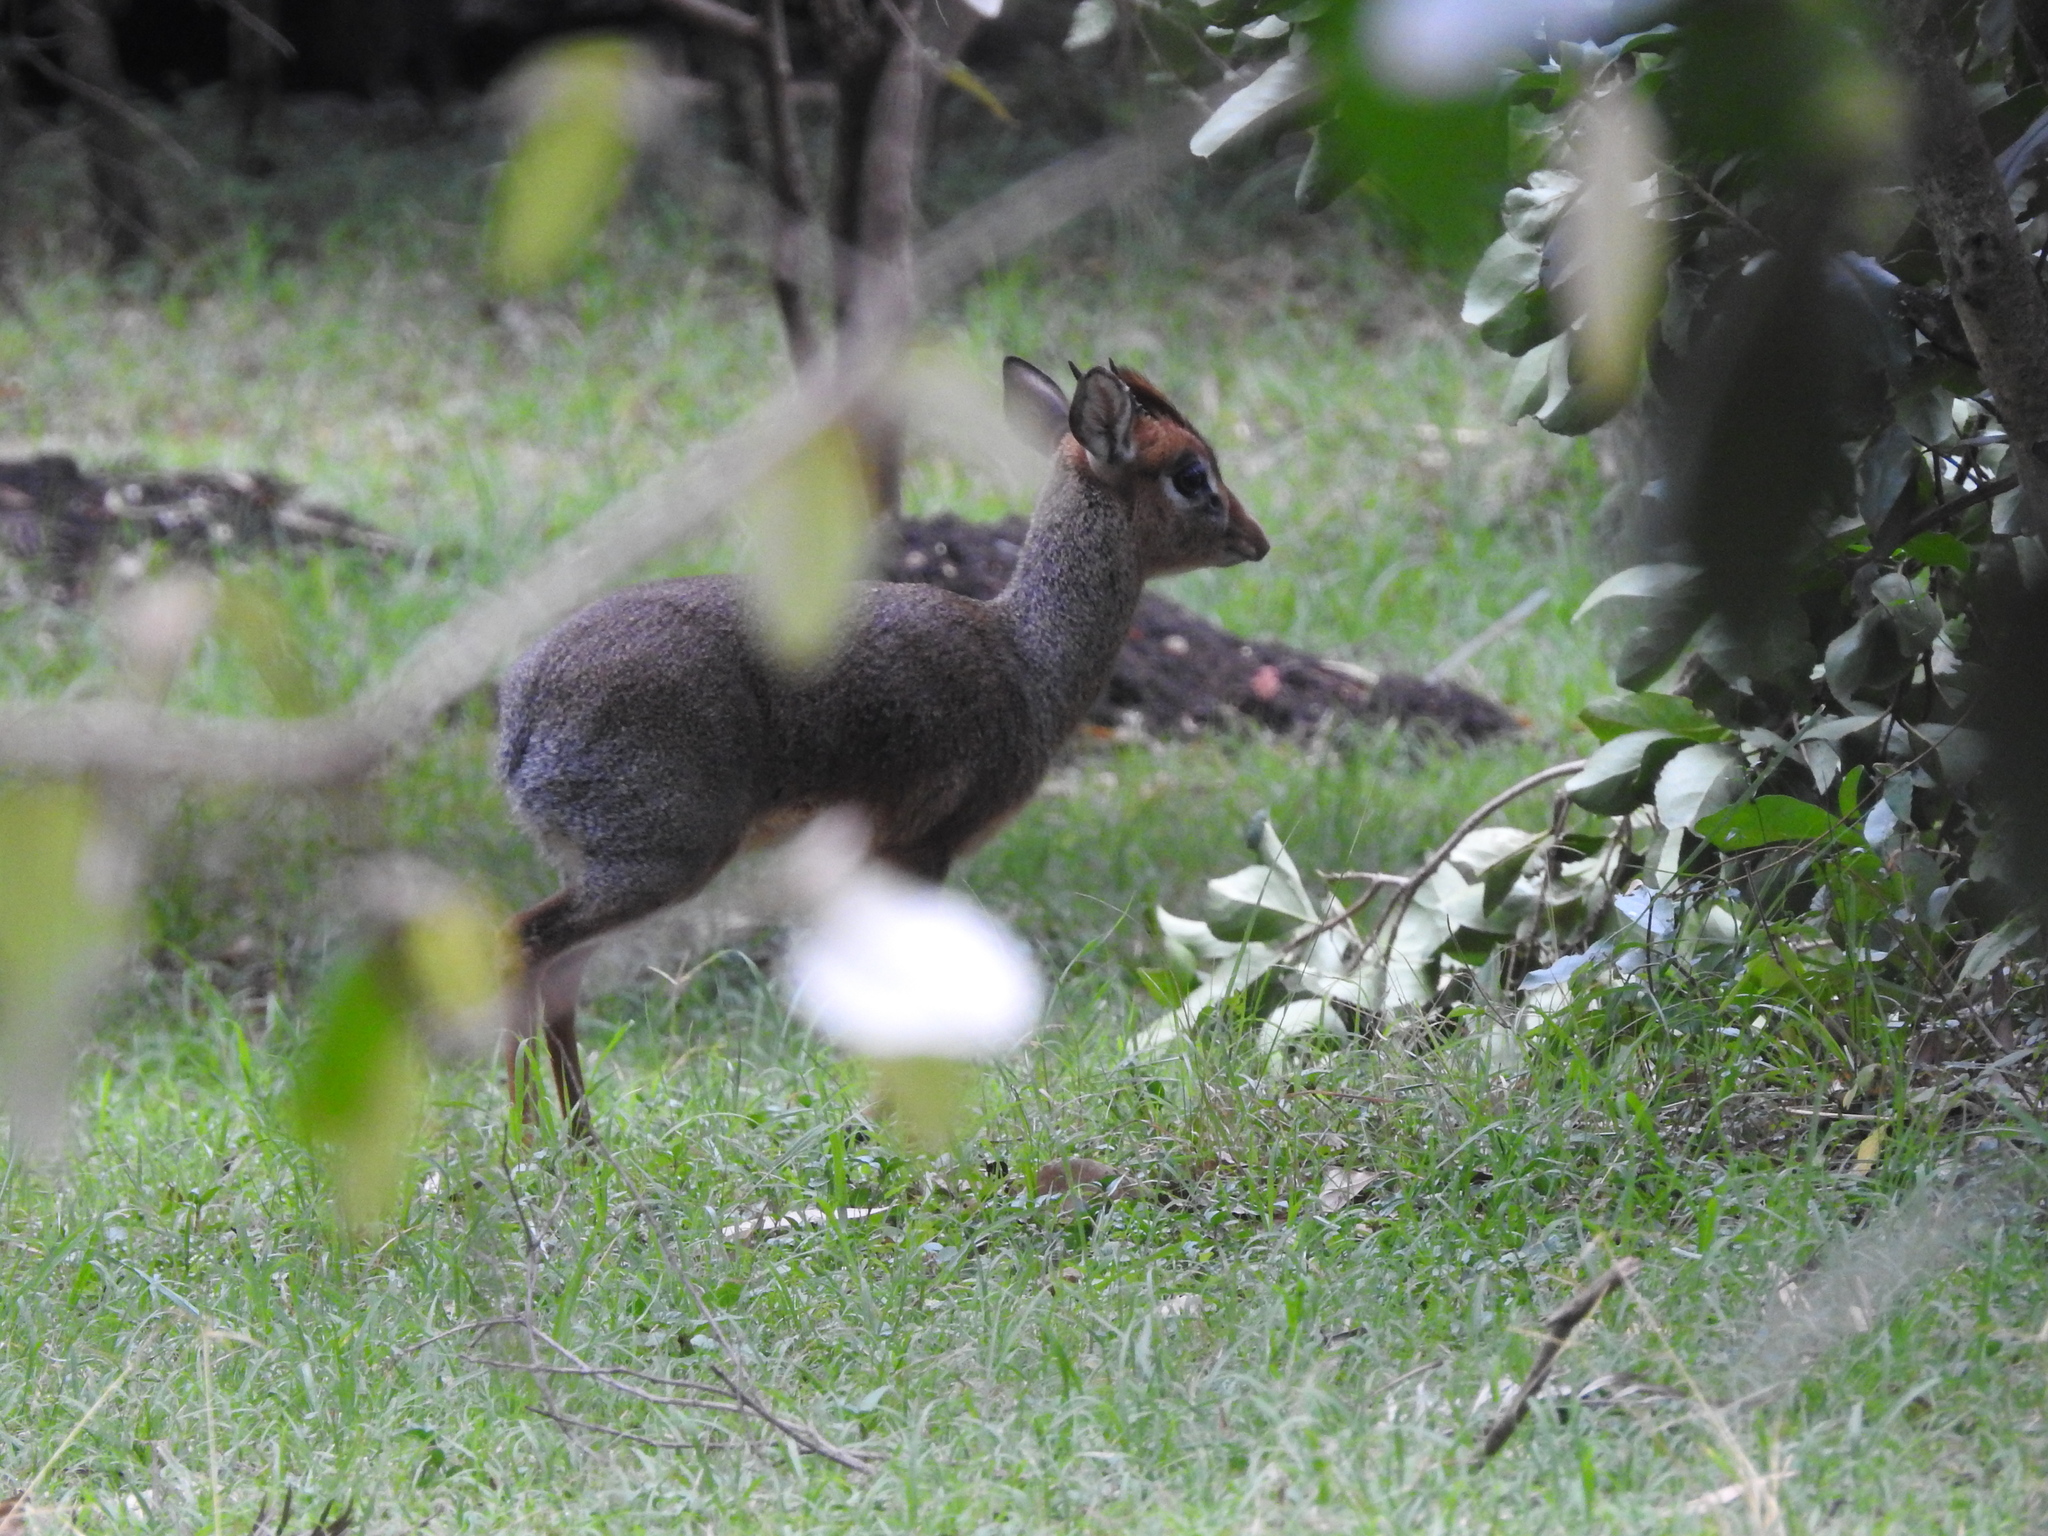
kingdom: Animalia
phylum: Chordata
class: Mammalia
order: Artiodactyla
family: Bovidae
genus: Madoqua
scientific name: Madoqua
